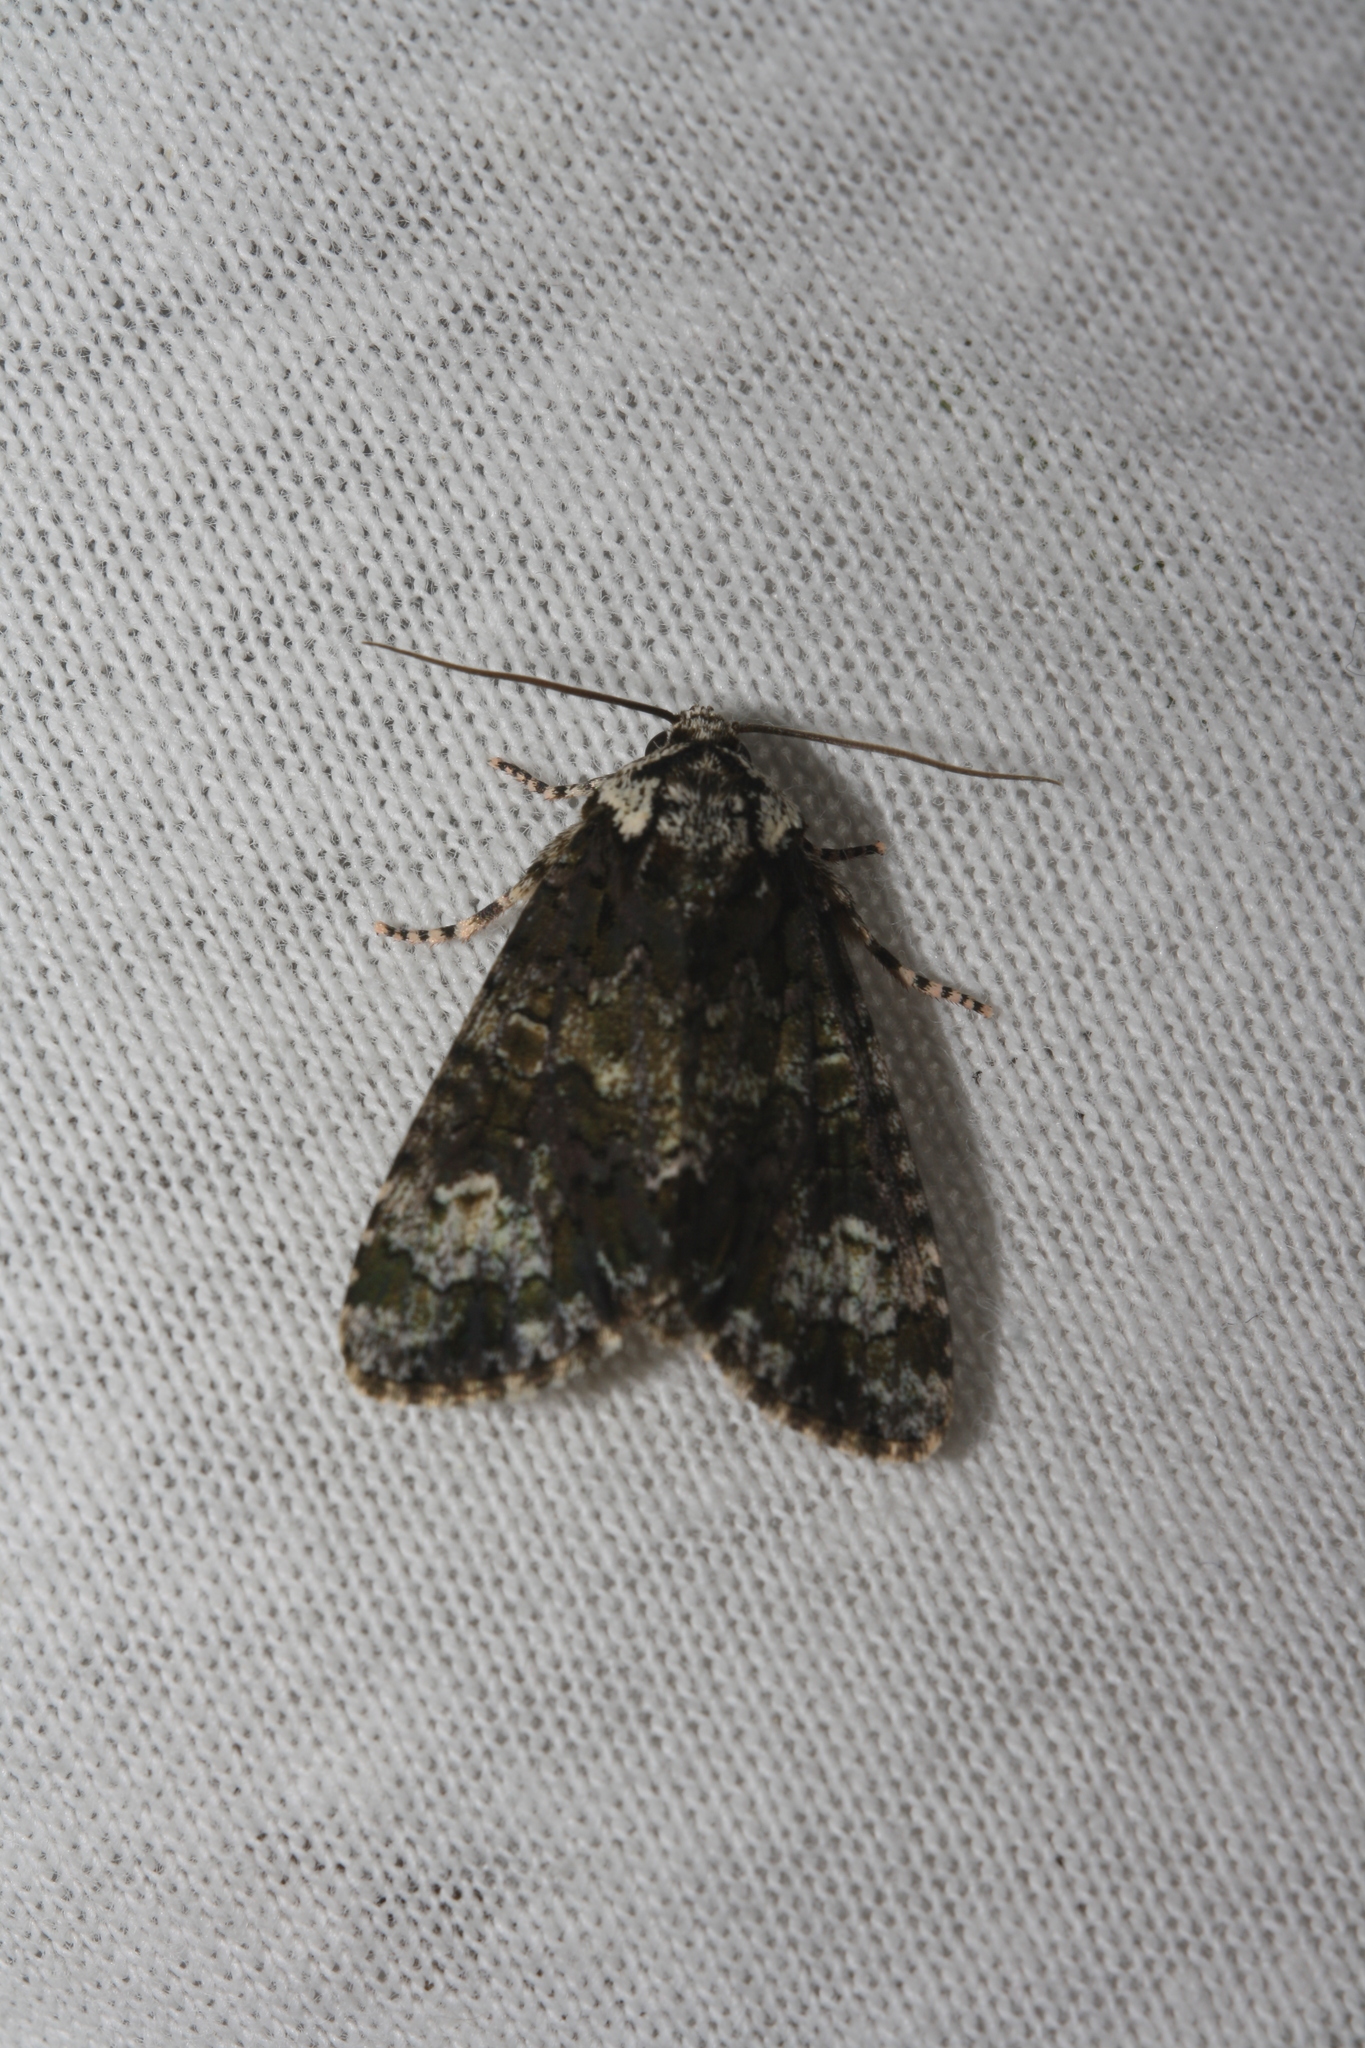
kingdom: Animalia
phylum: Arthropoda
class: Insecta
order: Lepidoptera
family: Noctuidae
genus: Craniophora
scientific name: Craniophora ligustri
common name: Coronet
